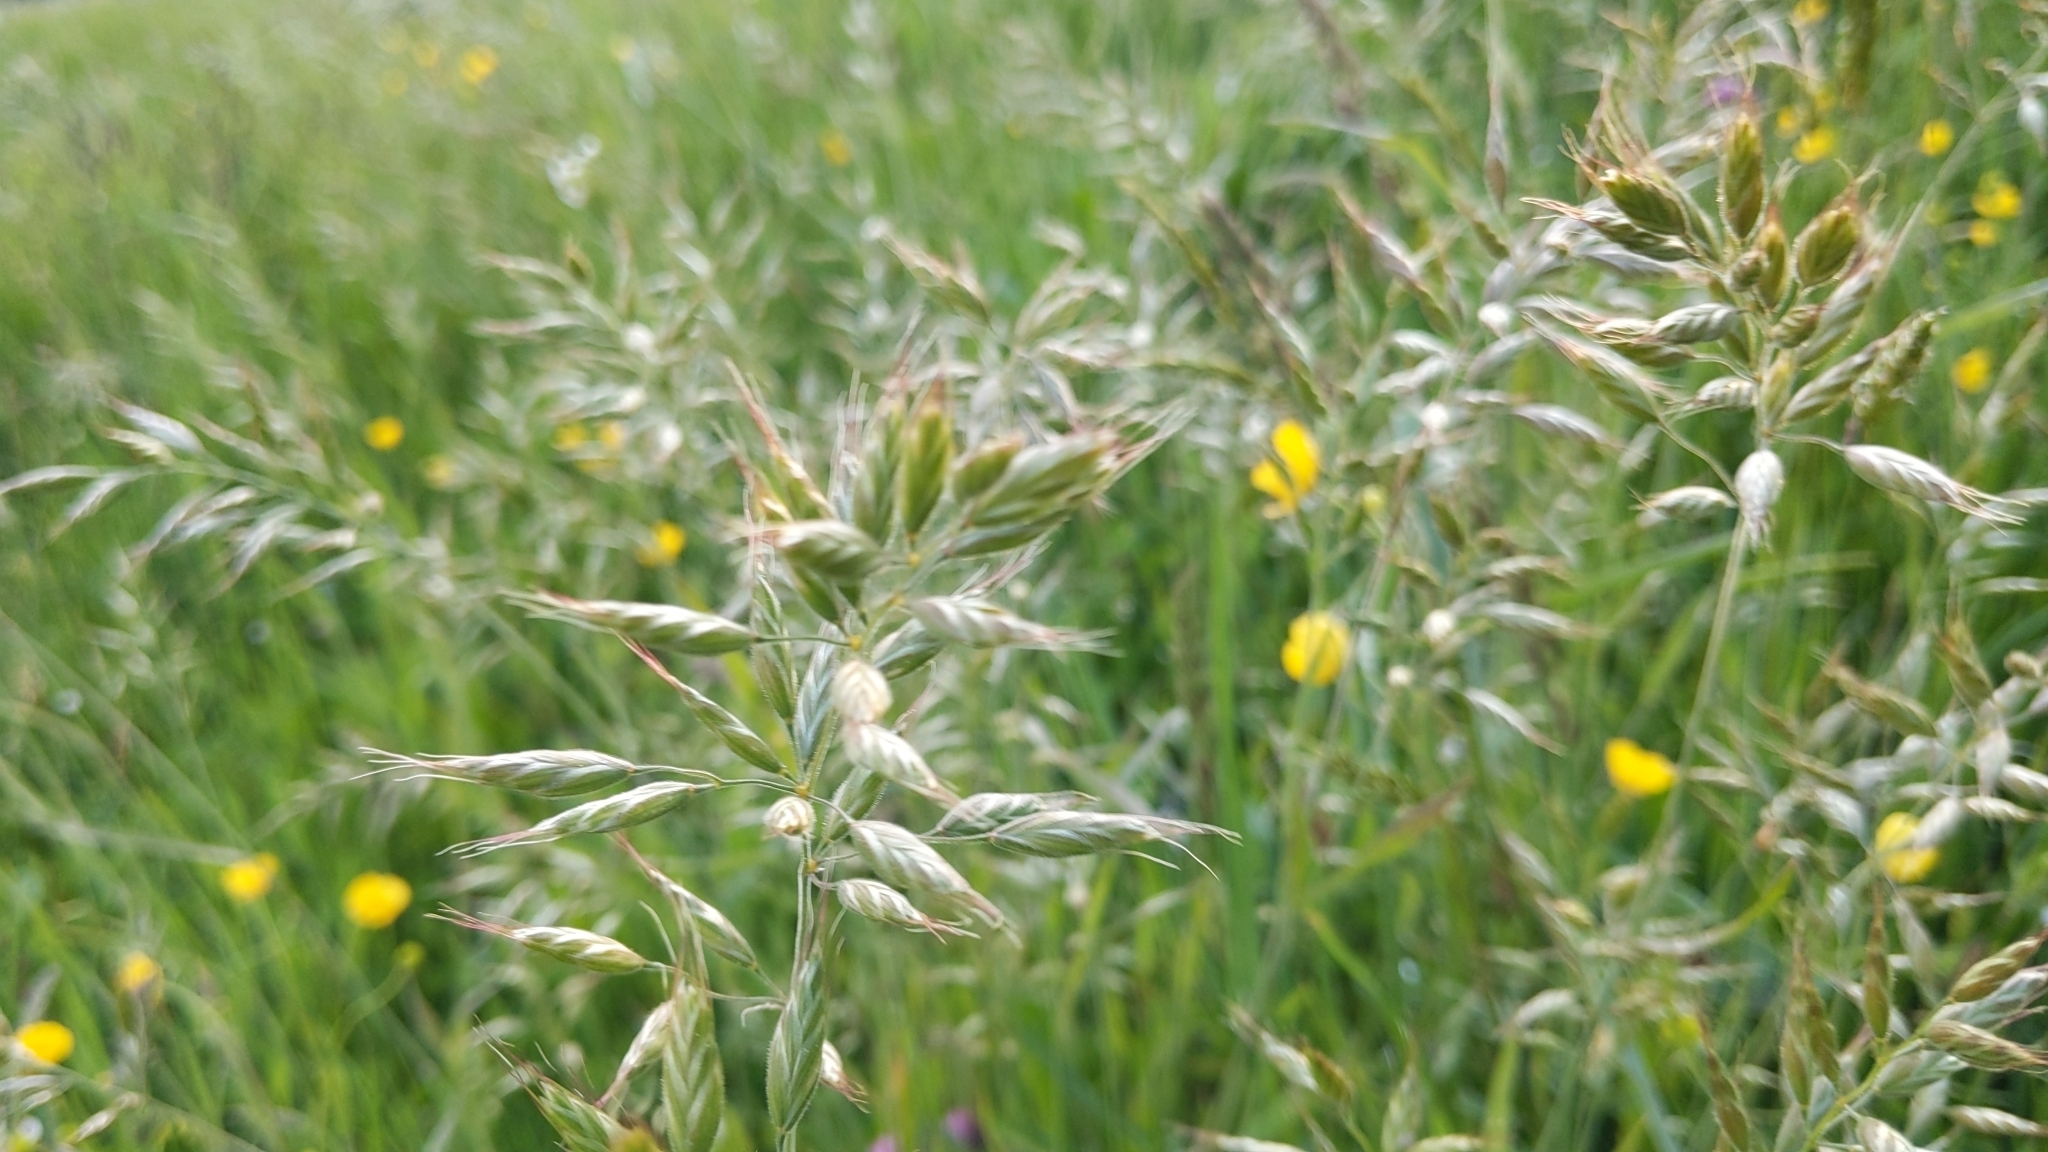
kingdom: Plantae
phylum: Tracheophyta
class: Liliopsida
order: Poales
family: Poaceae
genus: Bromus
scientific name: Bromus hordeaceus
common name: Soft brome
